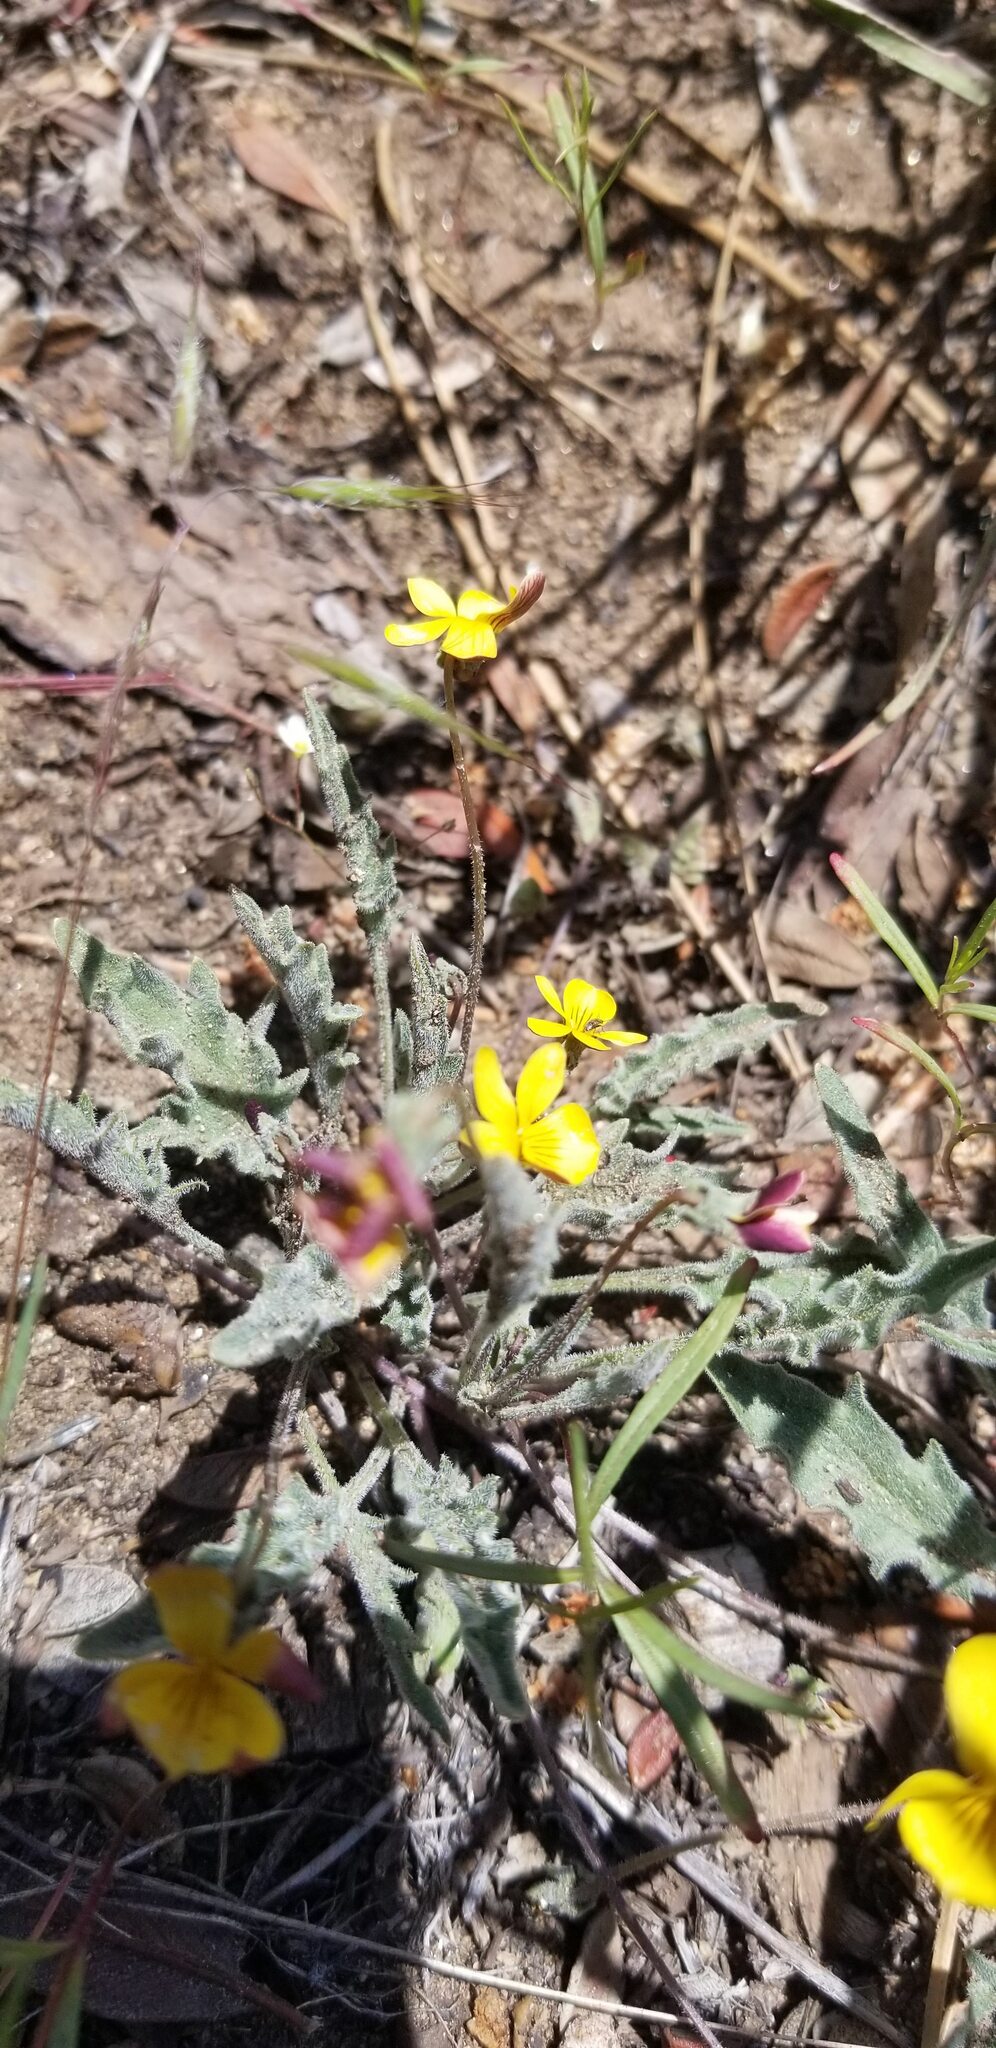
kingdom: Plantae
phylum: Tracheophyta
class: Magnoliopsida
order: Malpighiales
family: Violaceae
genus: Viola
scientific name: Viola pinetorum
